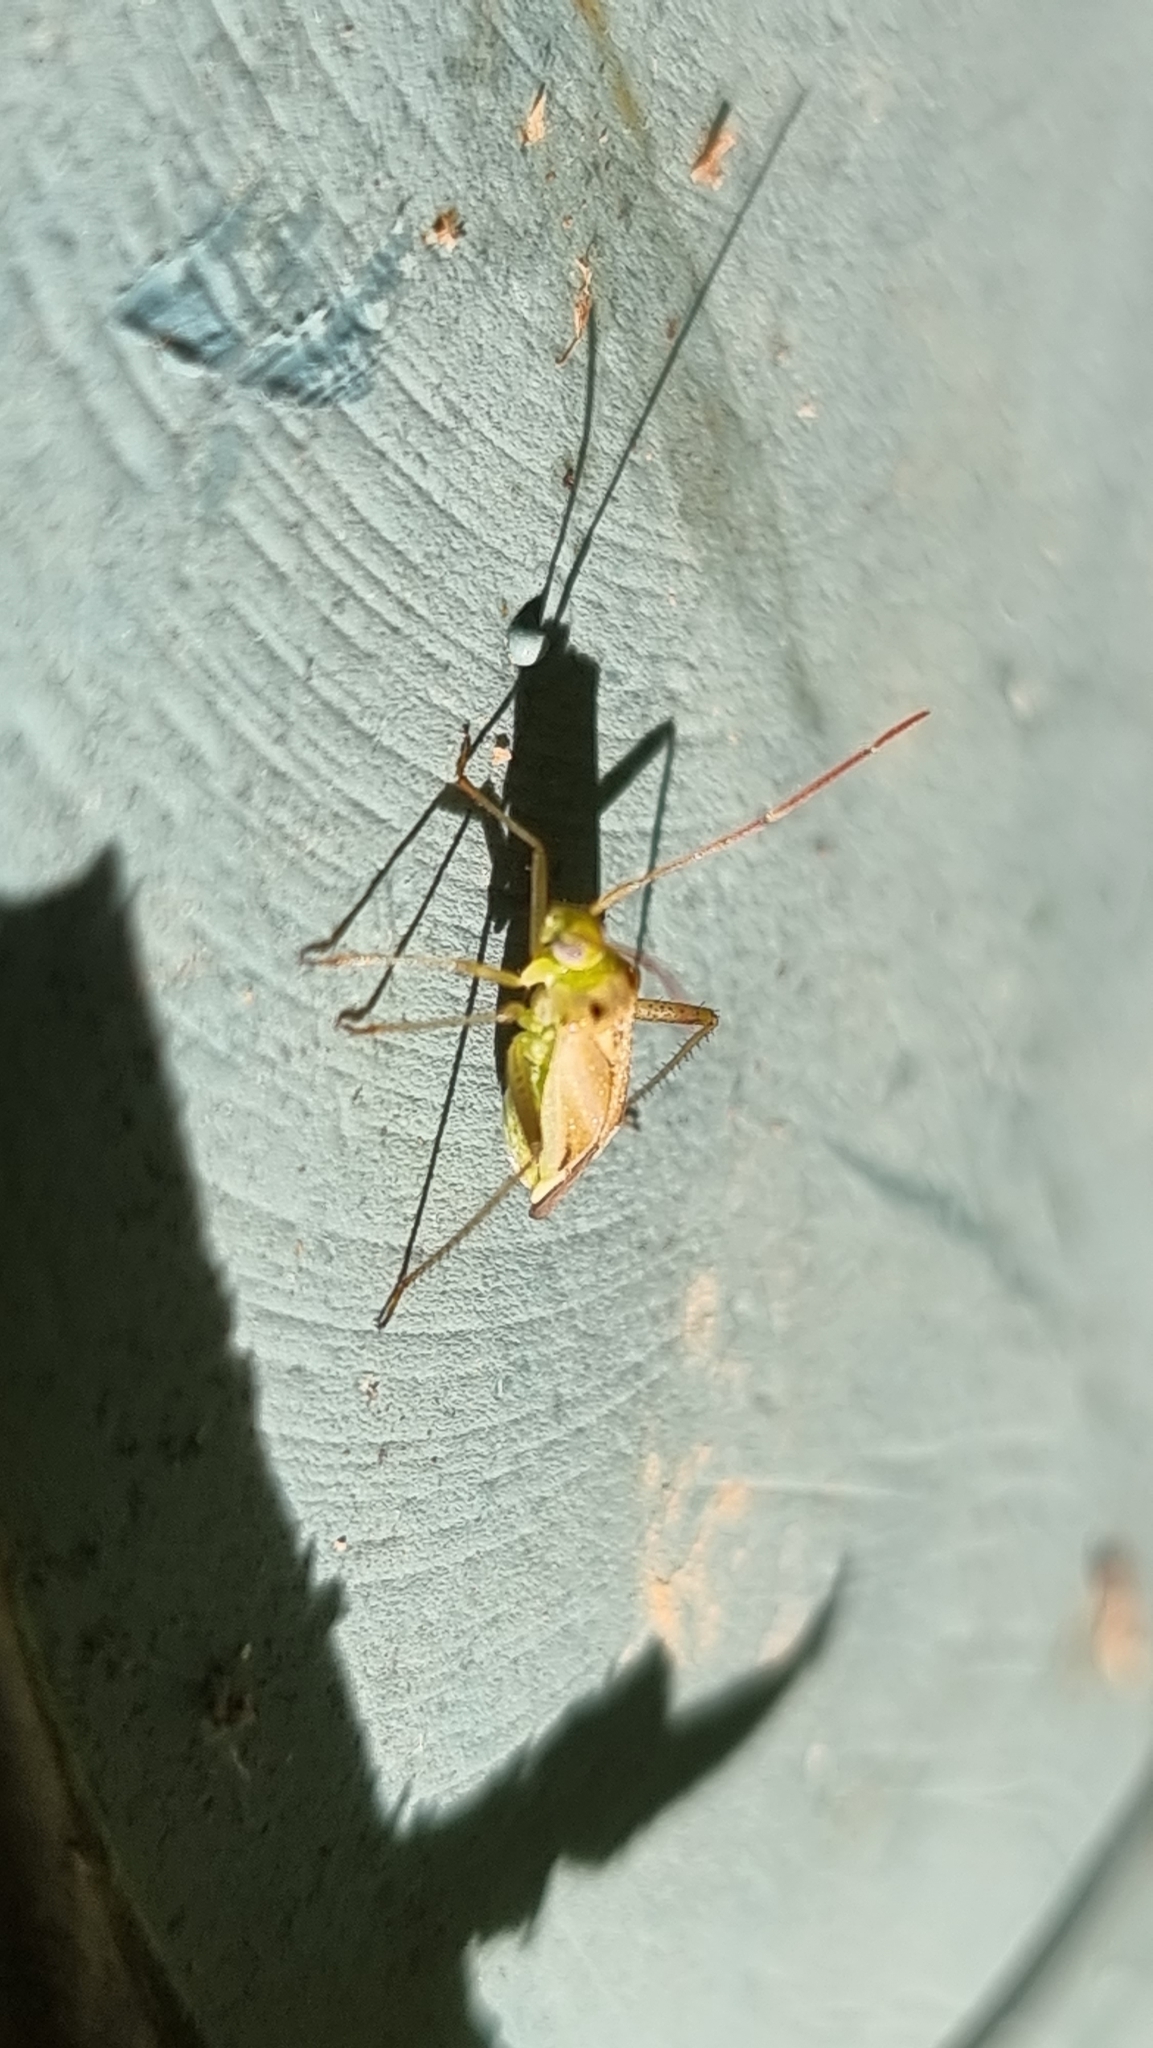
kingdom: Animalia
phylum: Arthropoda
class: Insecta
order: Hemiptera
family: Miridae
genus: Adelphocoris
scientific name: Adelphocoris lineolatus
